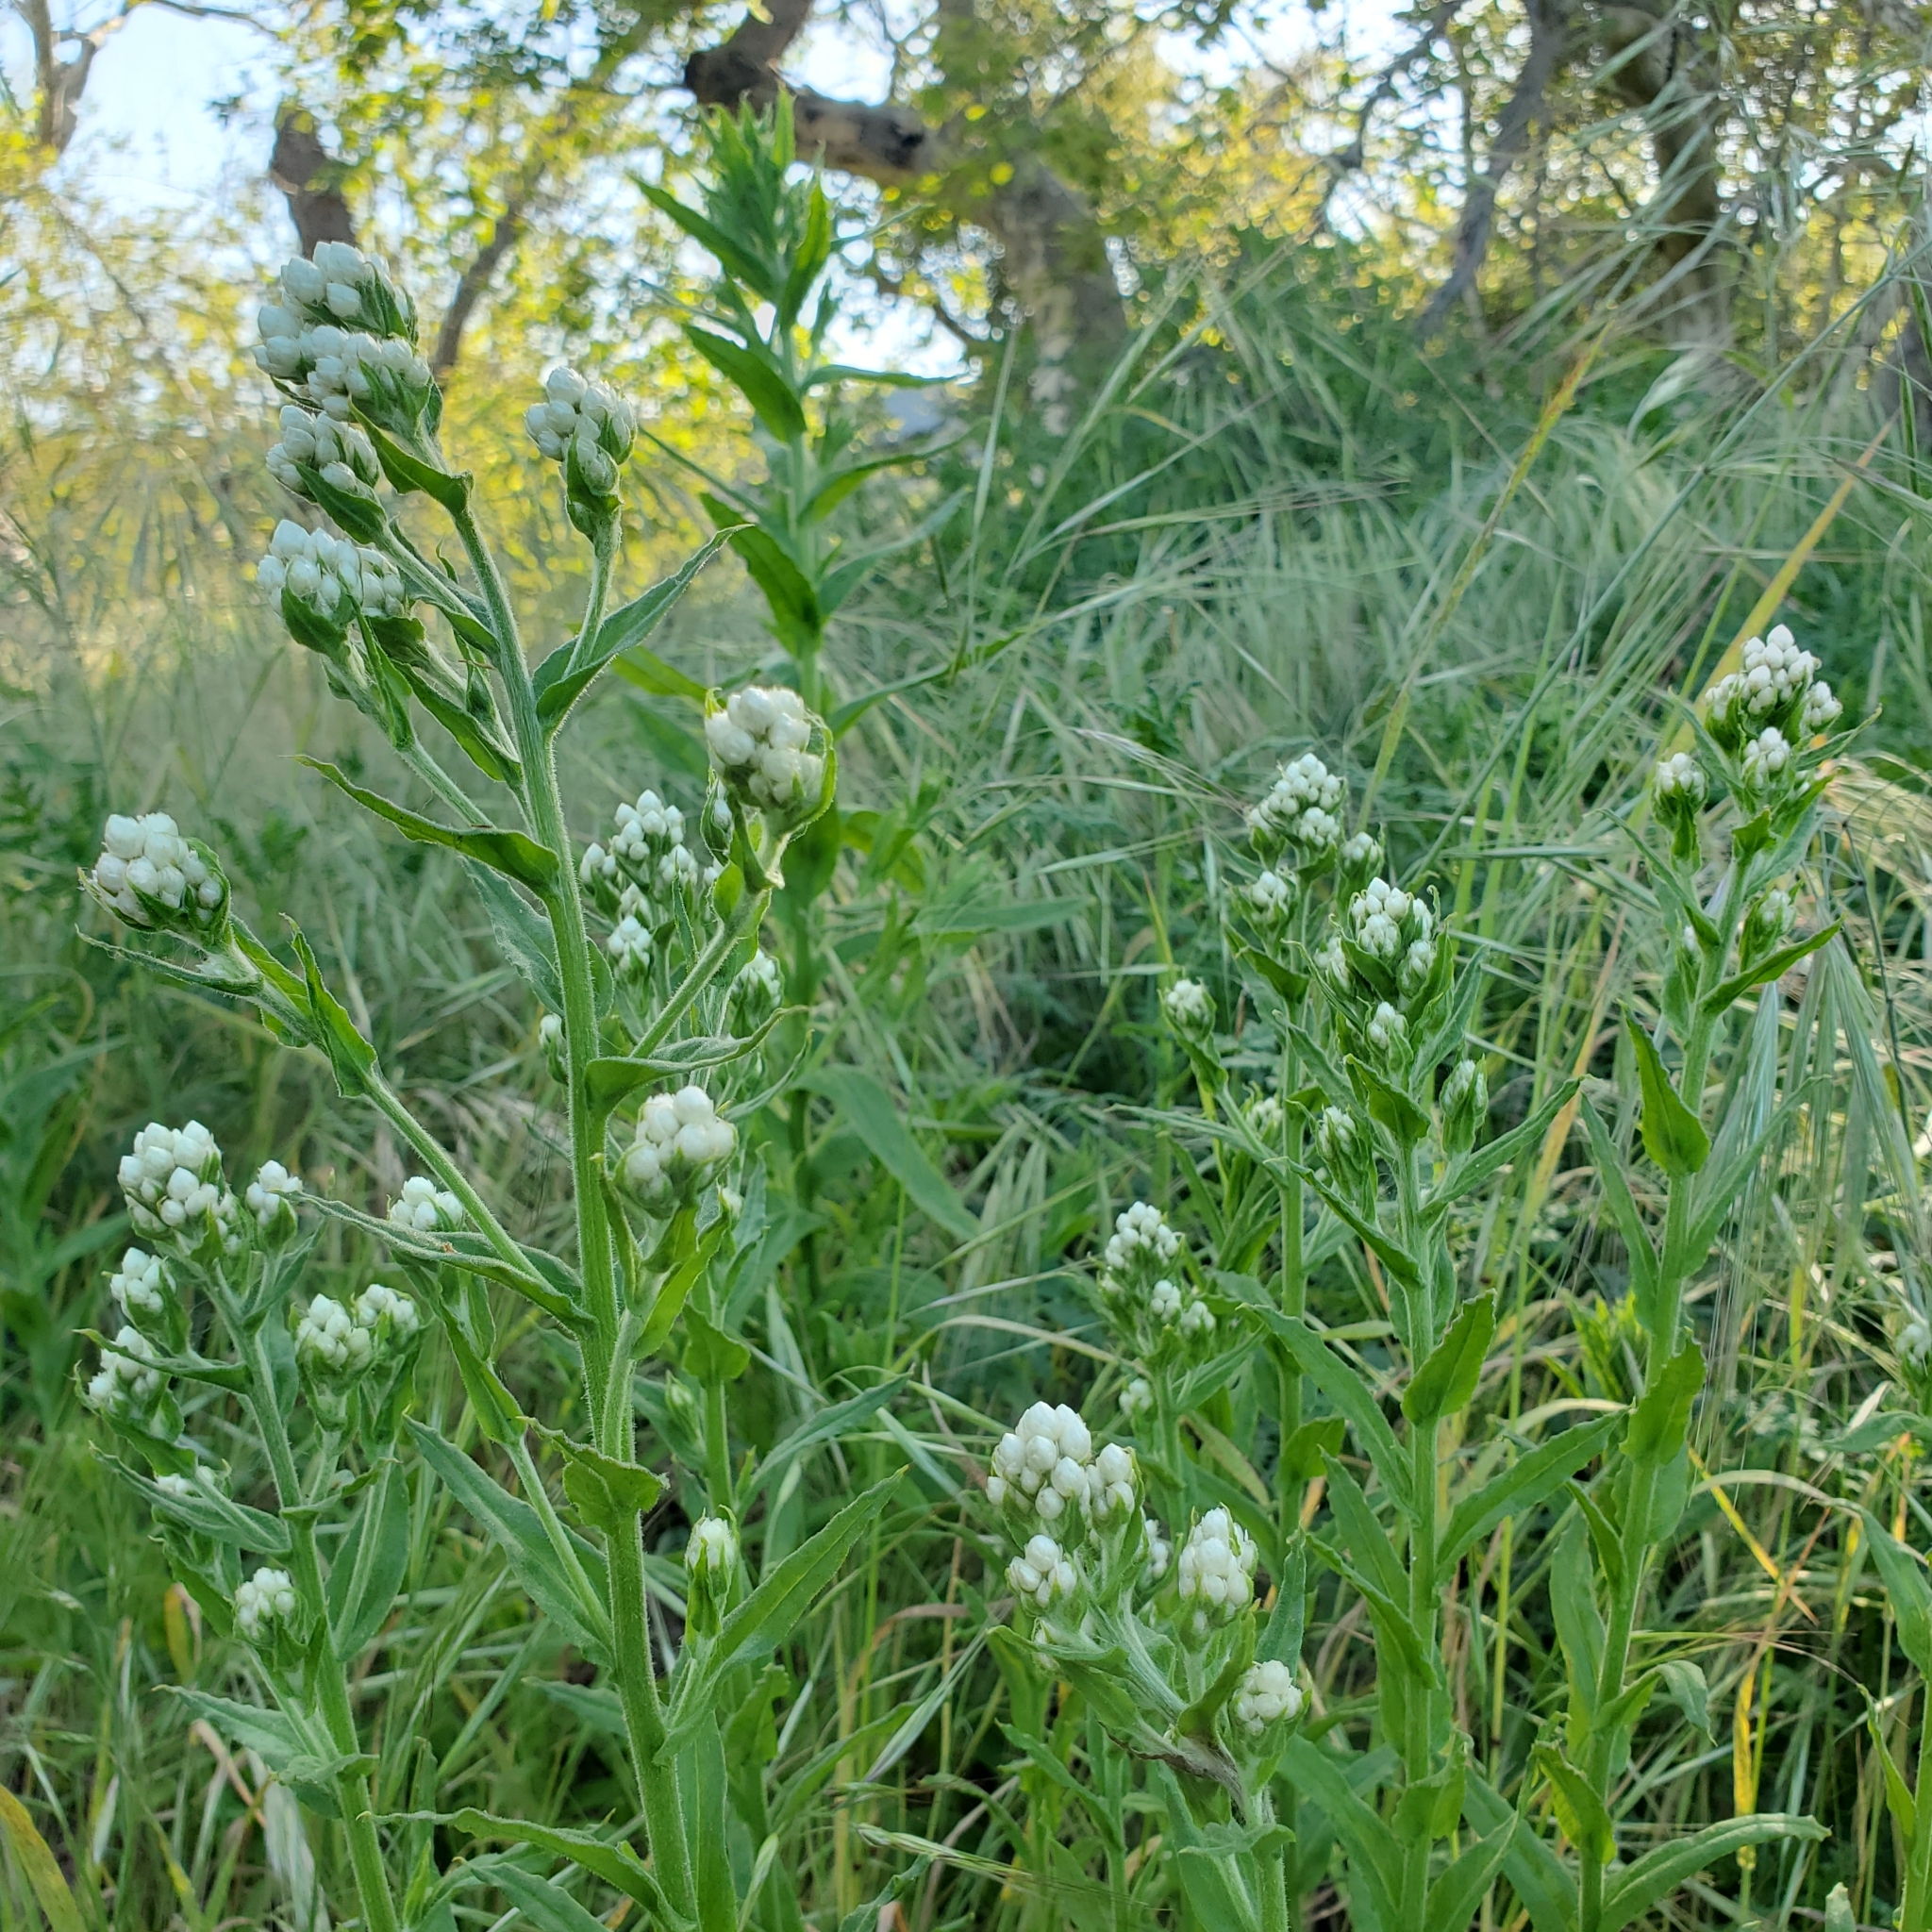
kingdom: Plantae
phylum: Tracheophyta
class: Magnoliopsida
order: Asterales
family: Asteraceae
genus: Pseudognaphalium
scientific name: Pseudognaphalium californicum
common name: California rabbit-tobacco
